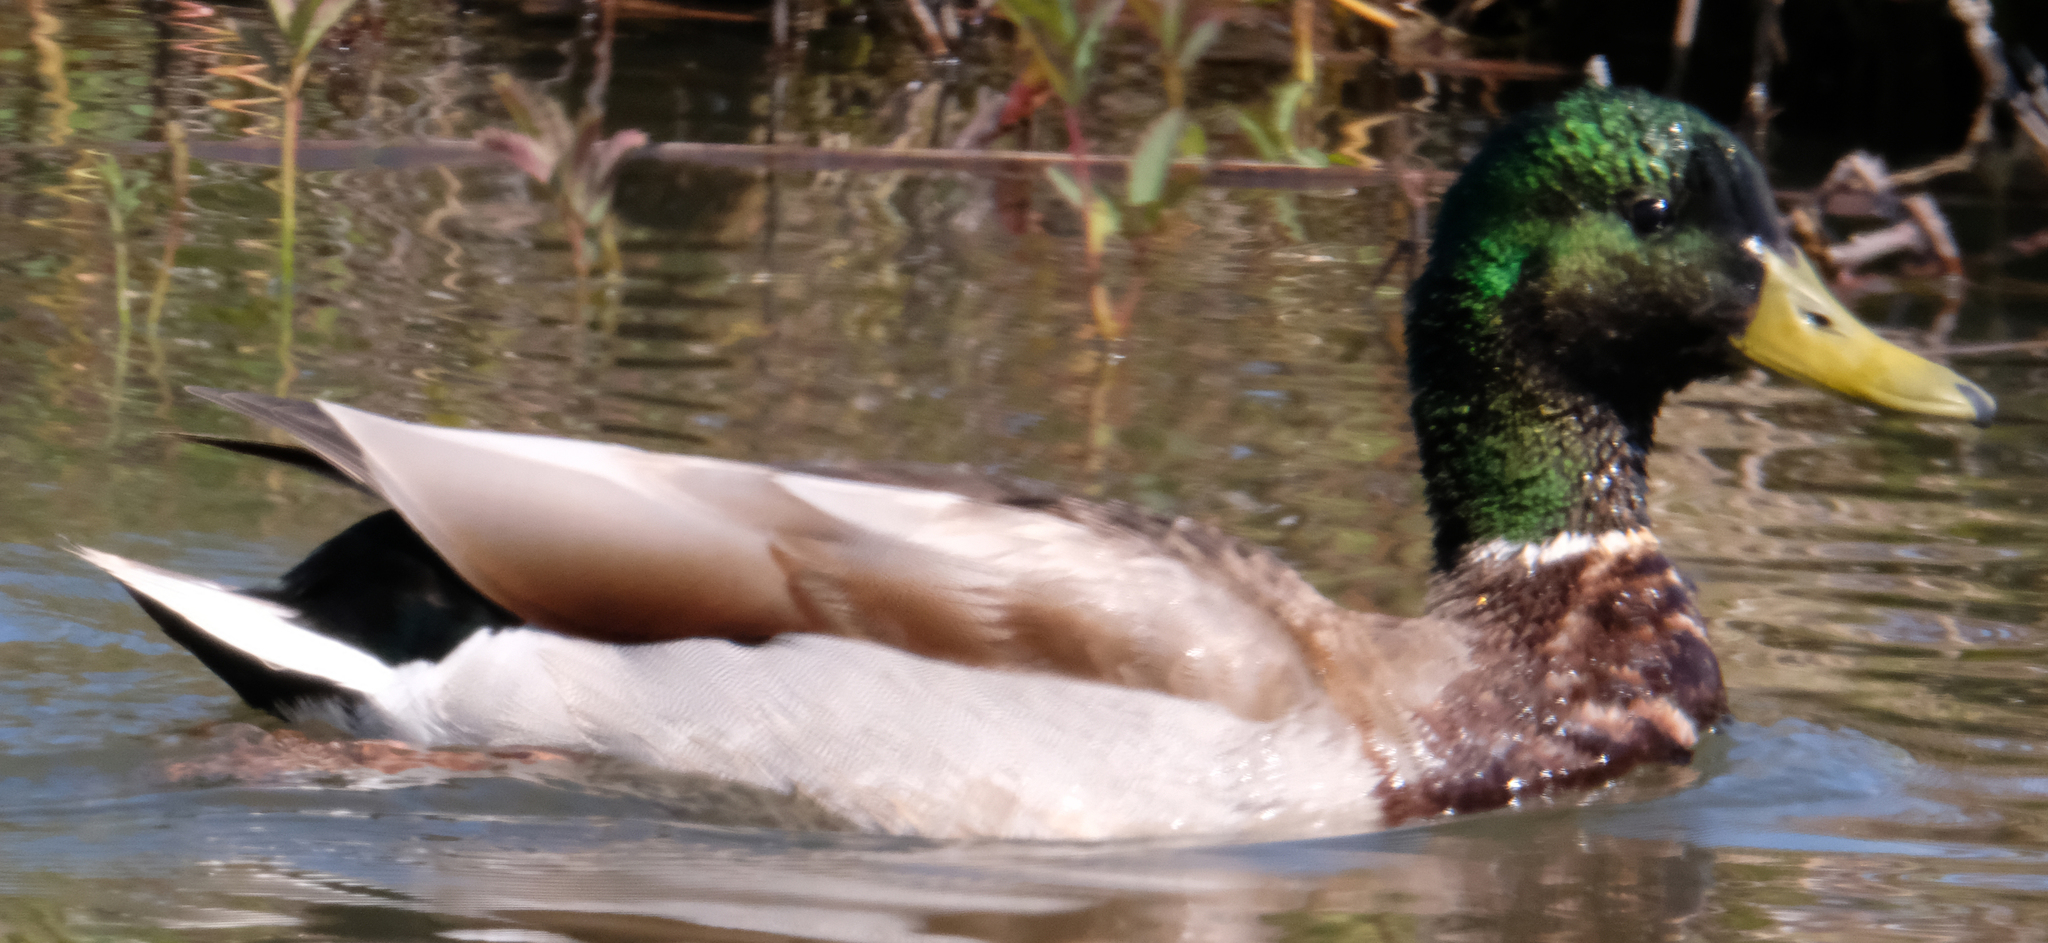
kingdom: Animalia
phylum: Chordata
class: Aves
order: Anseriformes
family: Anatidae
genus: Anas
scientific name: Anas platyrhynchos
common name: Mallard
